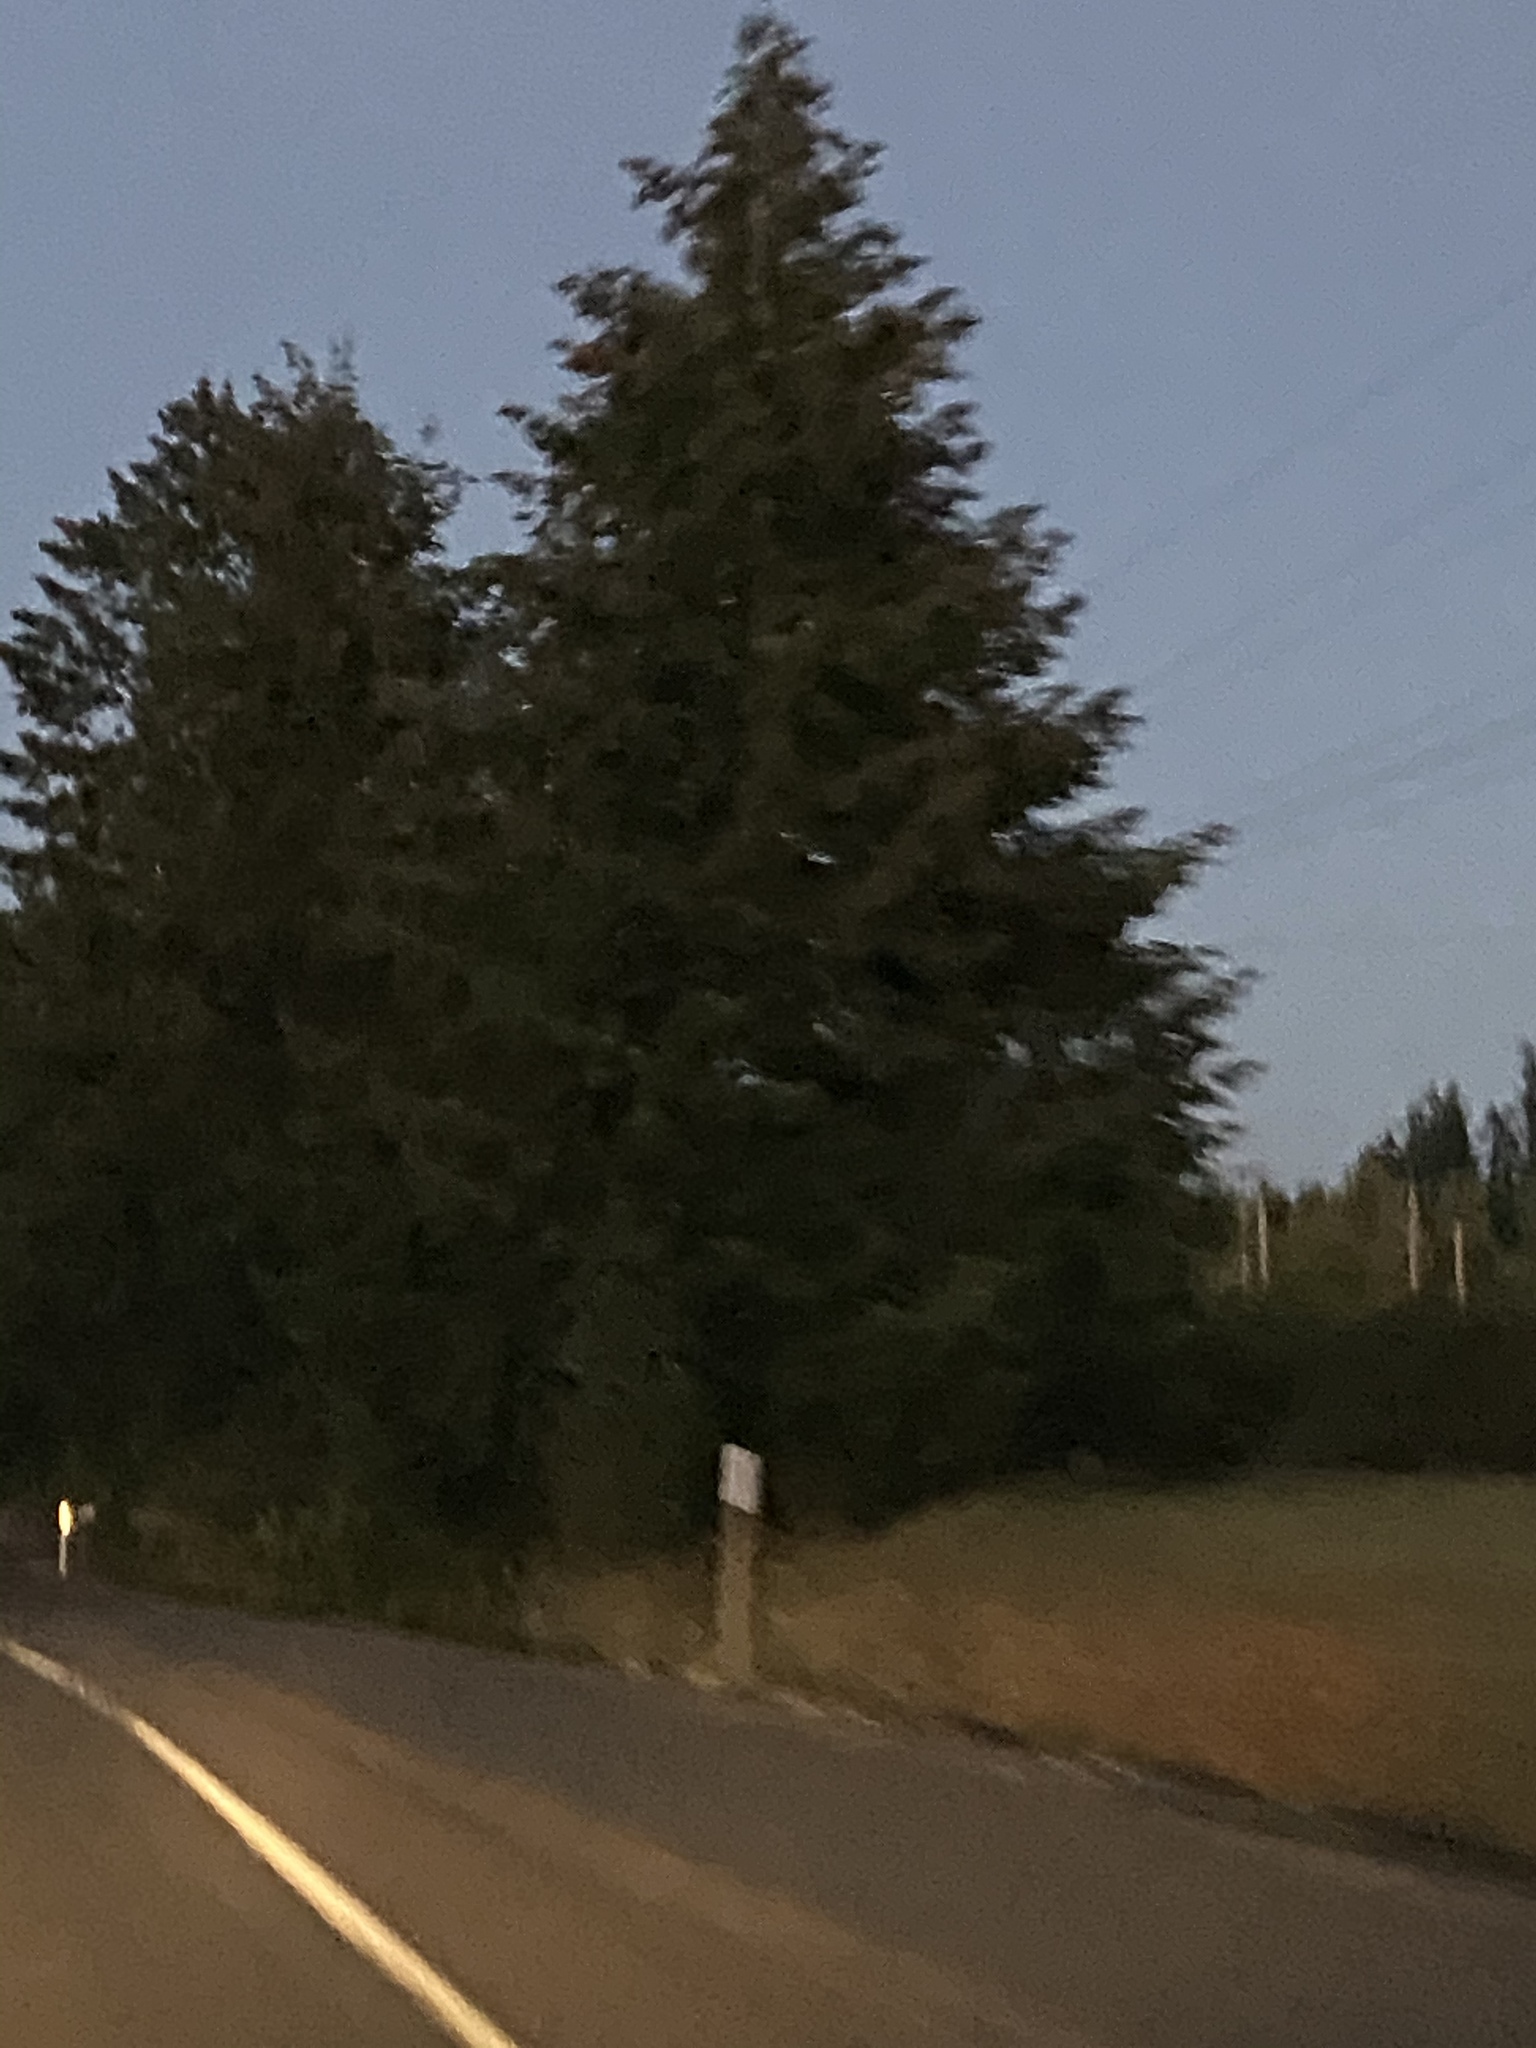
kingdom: Plantae
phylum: Tracheophyta
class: Pinopsida
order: Pinales
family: Pinaceae
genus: Pseudotsuga
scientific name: Pseudotsuga menziesii
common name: Douglas fir
